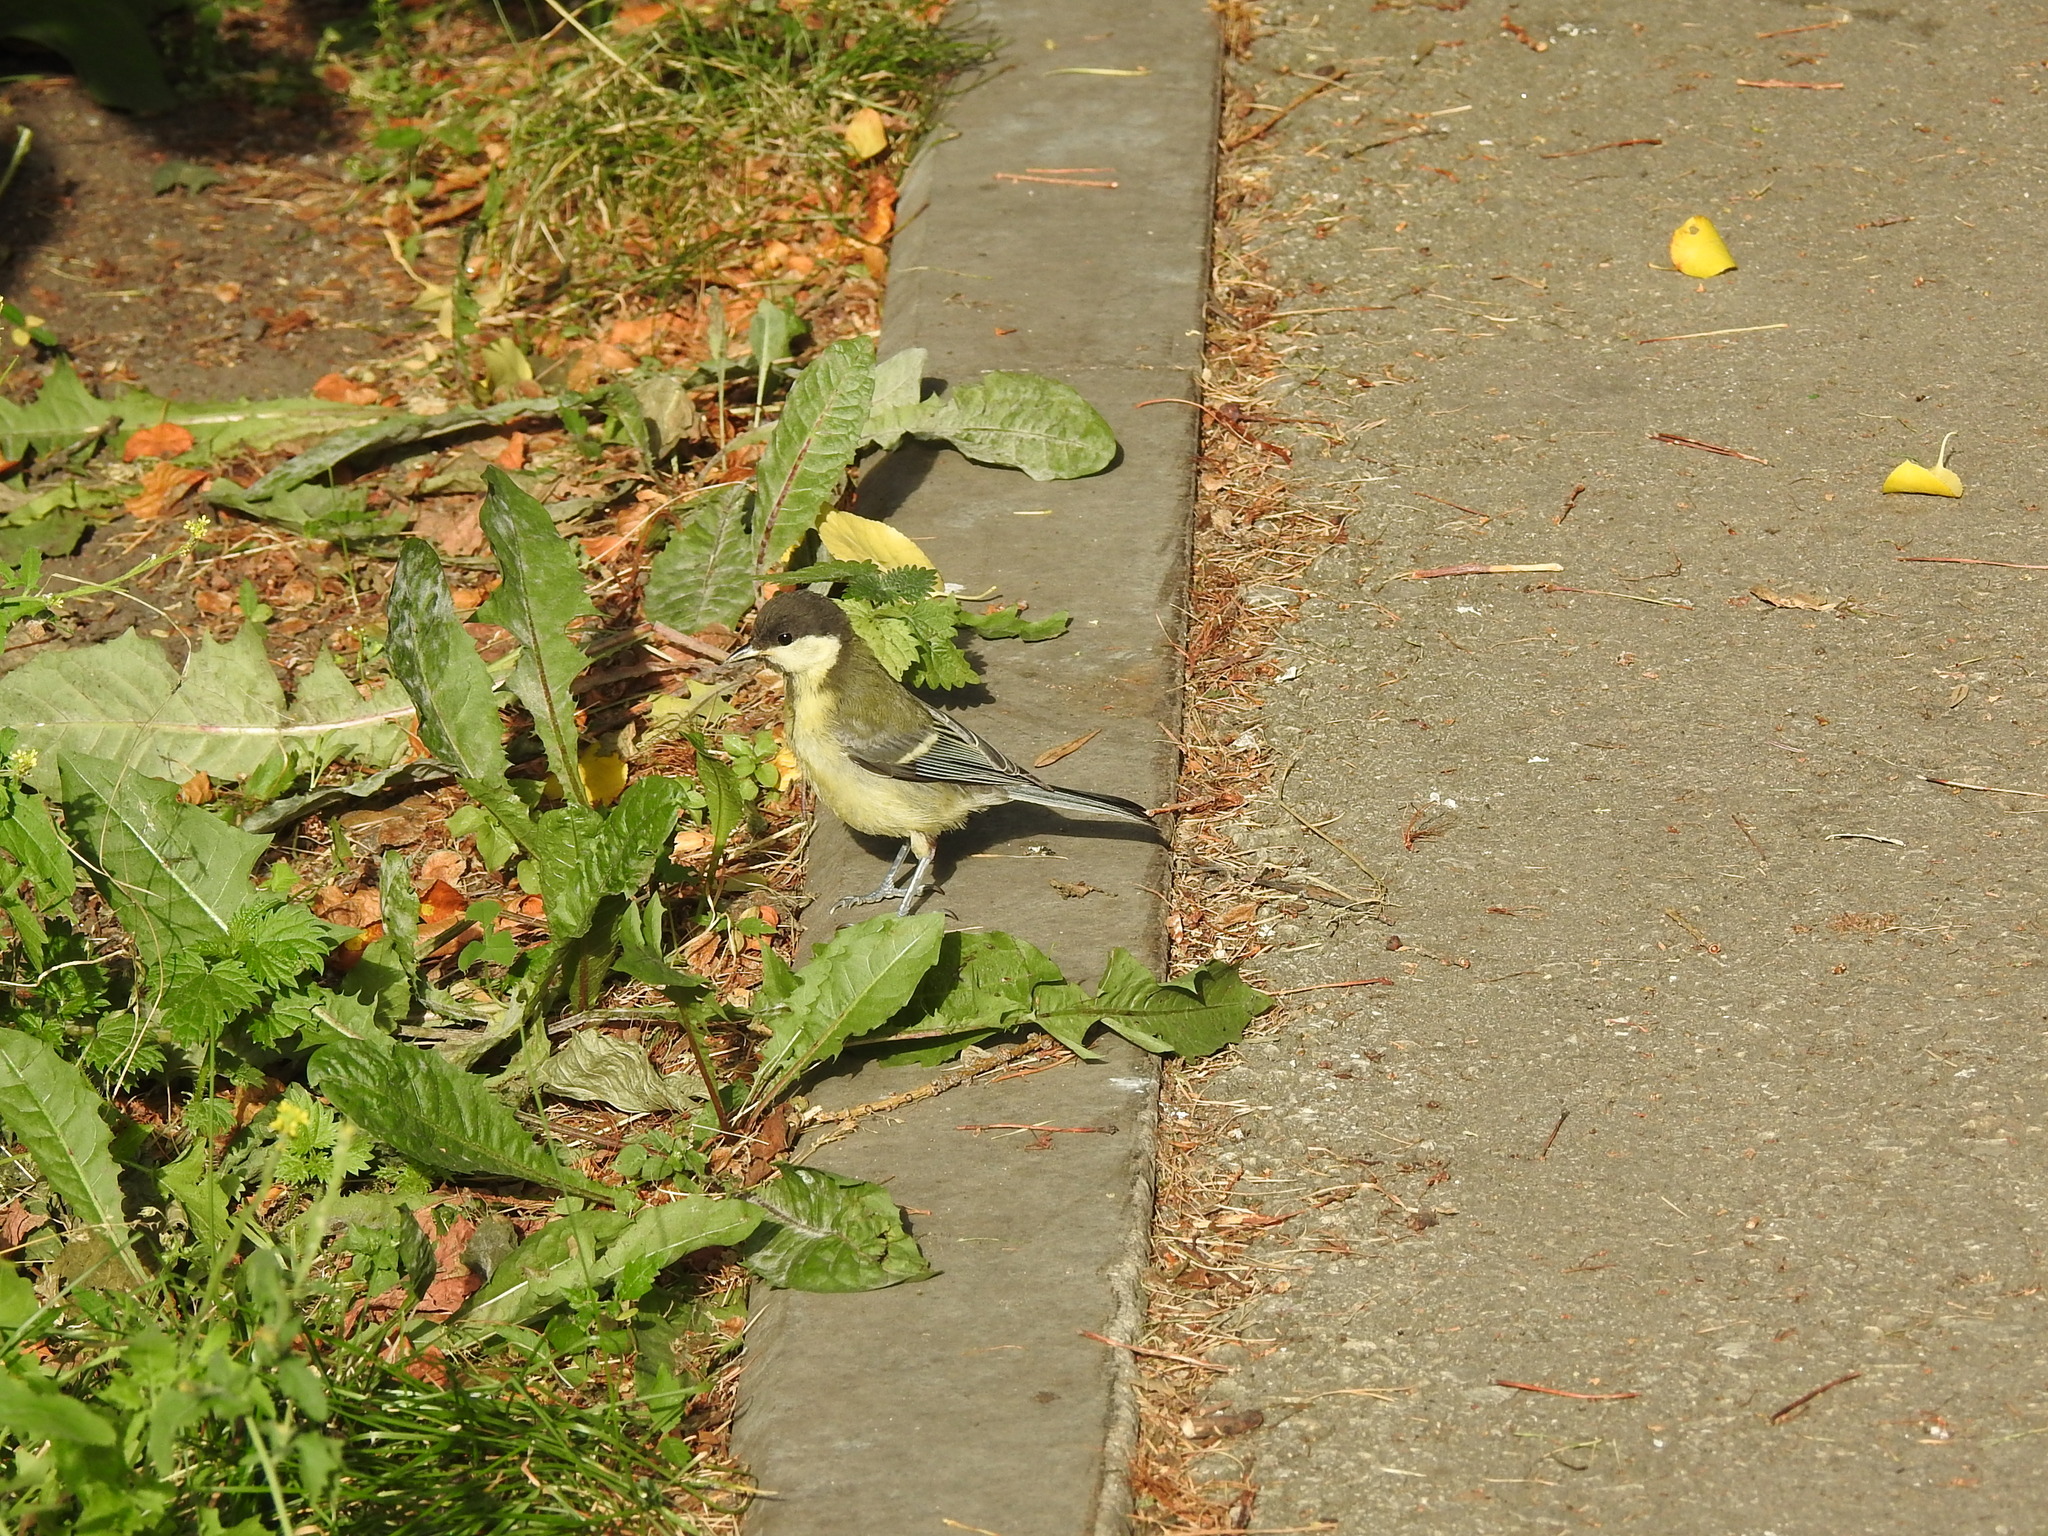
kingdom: Animalia
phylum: Chordata
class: Aves
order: Passeriformes
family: Paridae
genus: Parus
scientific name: Parus major
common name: Great tit
